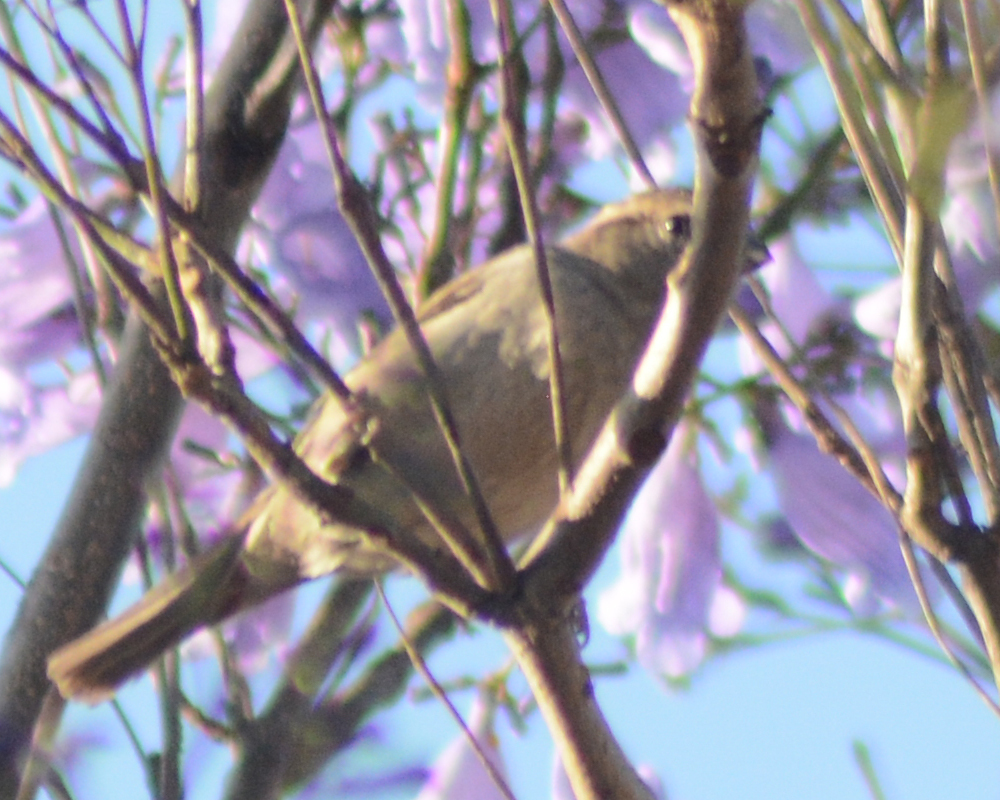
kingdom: Animalia
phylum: Chordata
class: Aves
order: Passeriformes
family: Passeridae
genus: Passer
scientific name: Passer domesticus
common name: House sparrow
